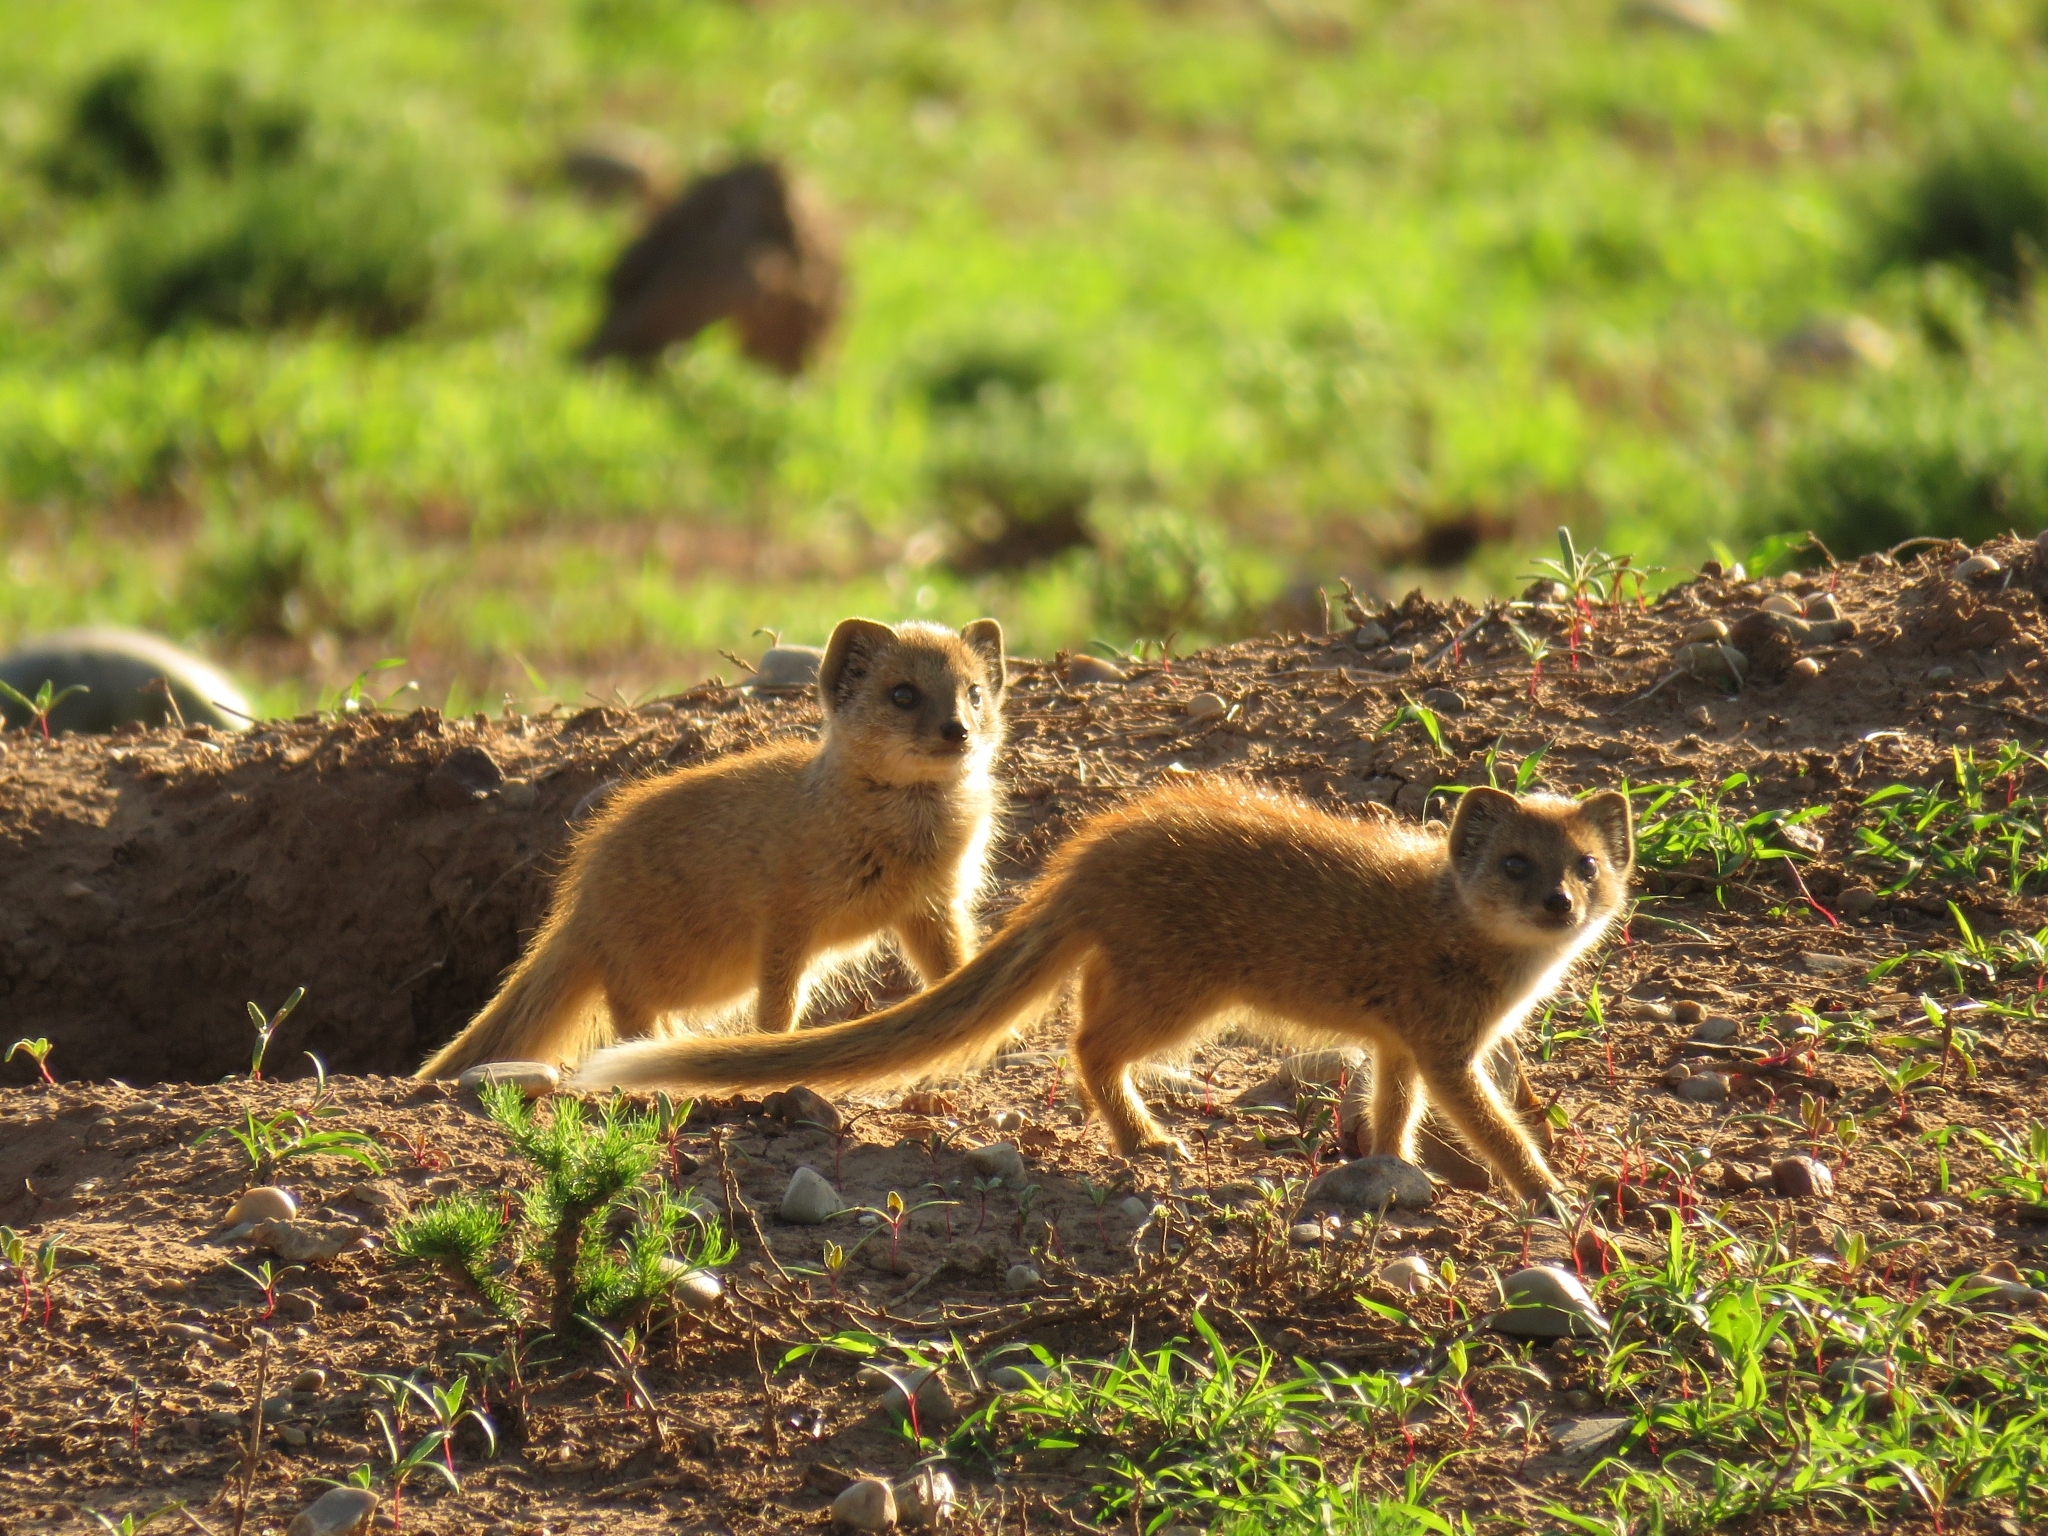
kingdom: Animalia
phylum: Chordata
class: Mammalia
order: Carnivora
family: Herpestidae
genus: Cynictis
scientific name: Cynictis penicillata
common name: Yellow mongoose
